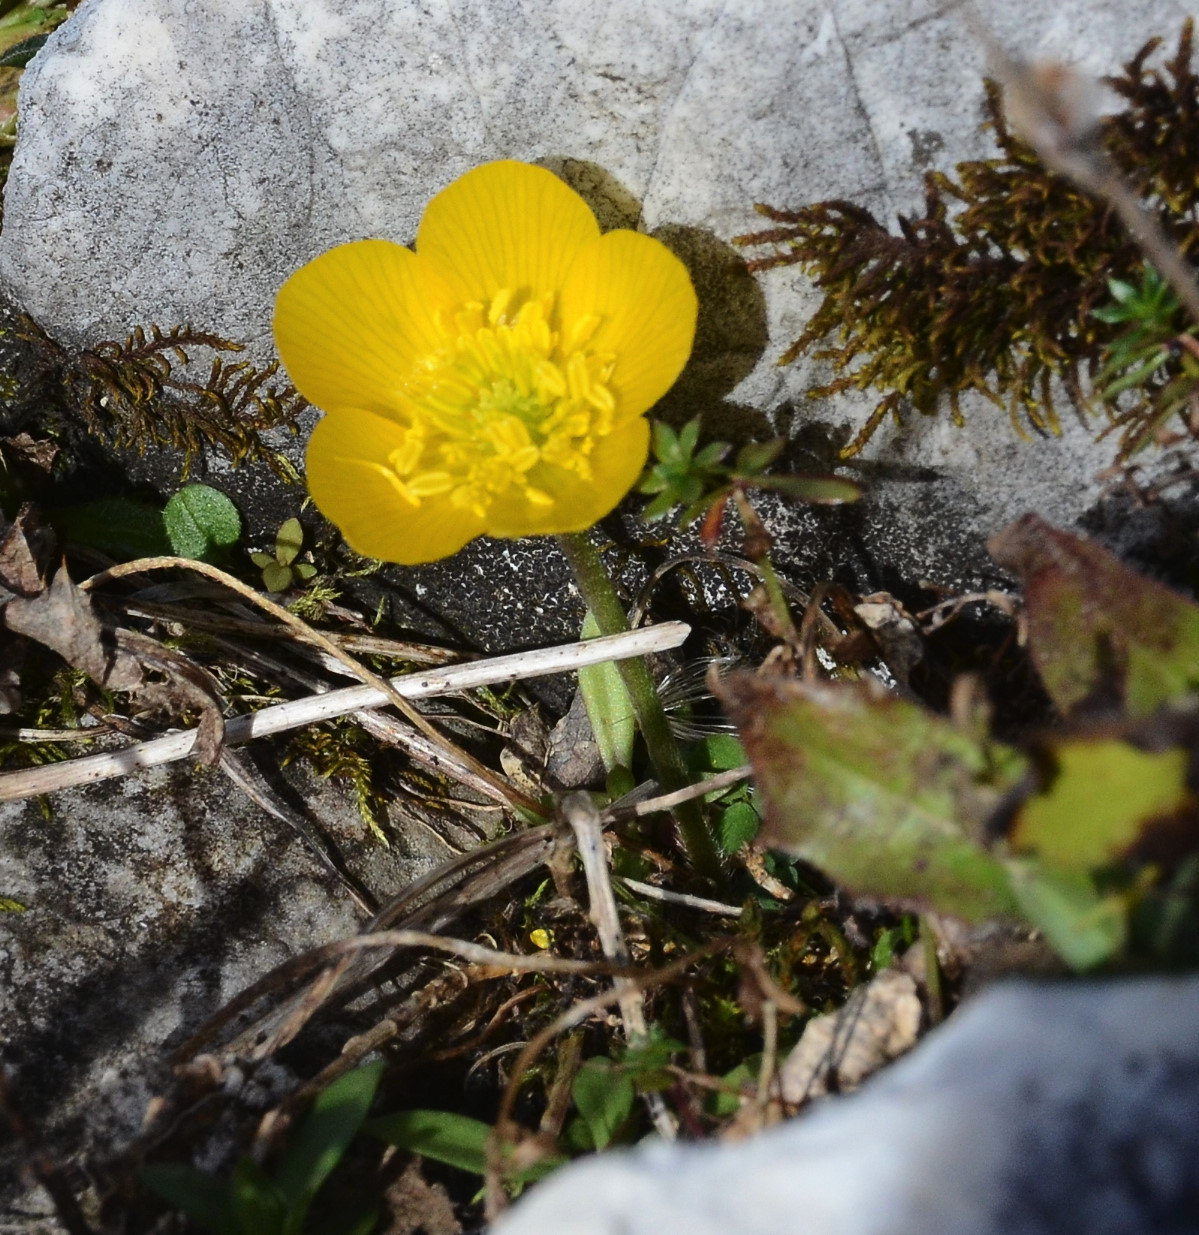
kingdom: Plantae
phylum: Tracheophyta
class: Magnoliopsida
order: Ranunculales
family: Ranunculaceae
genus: Ranunculus
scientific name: Ranunculus montanus
